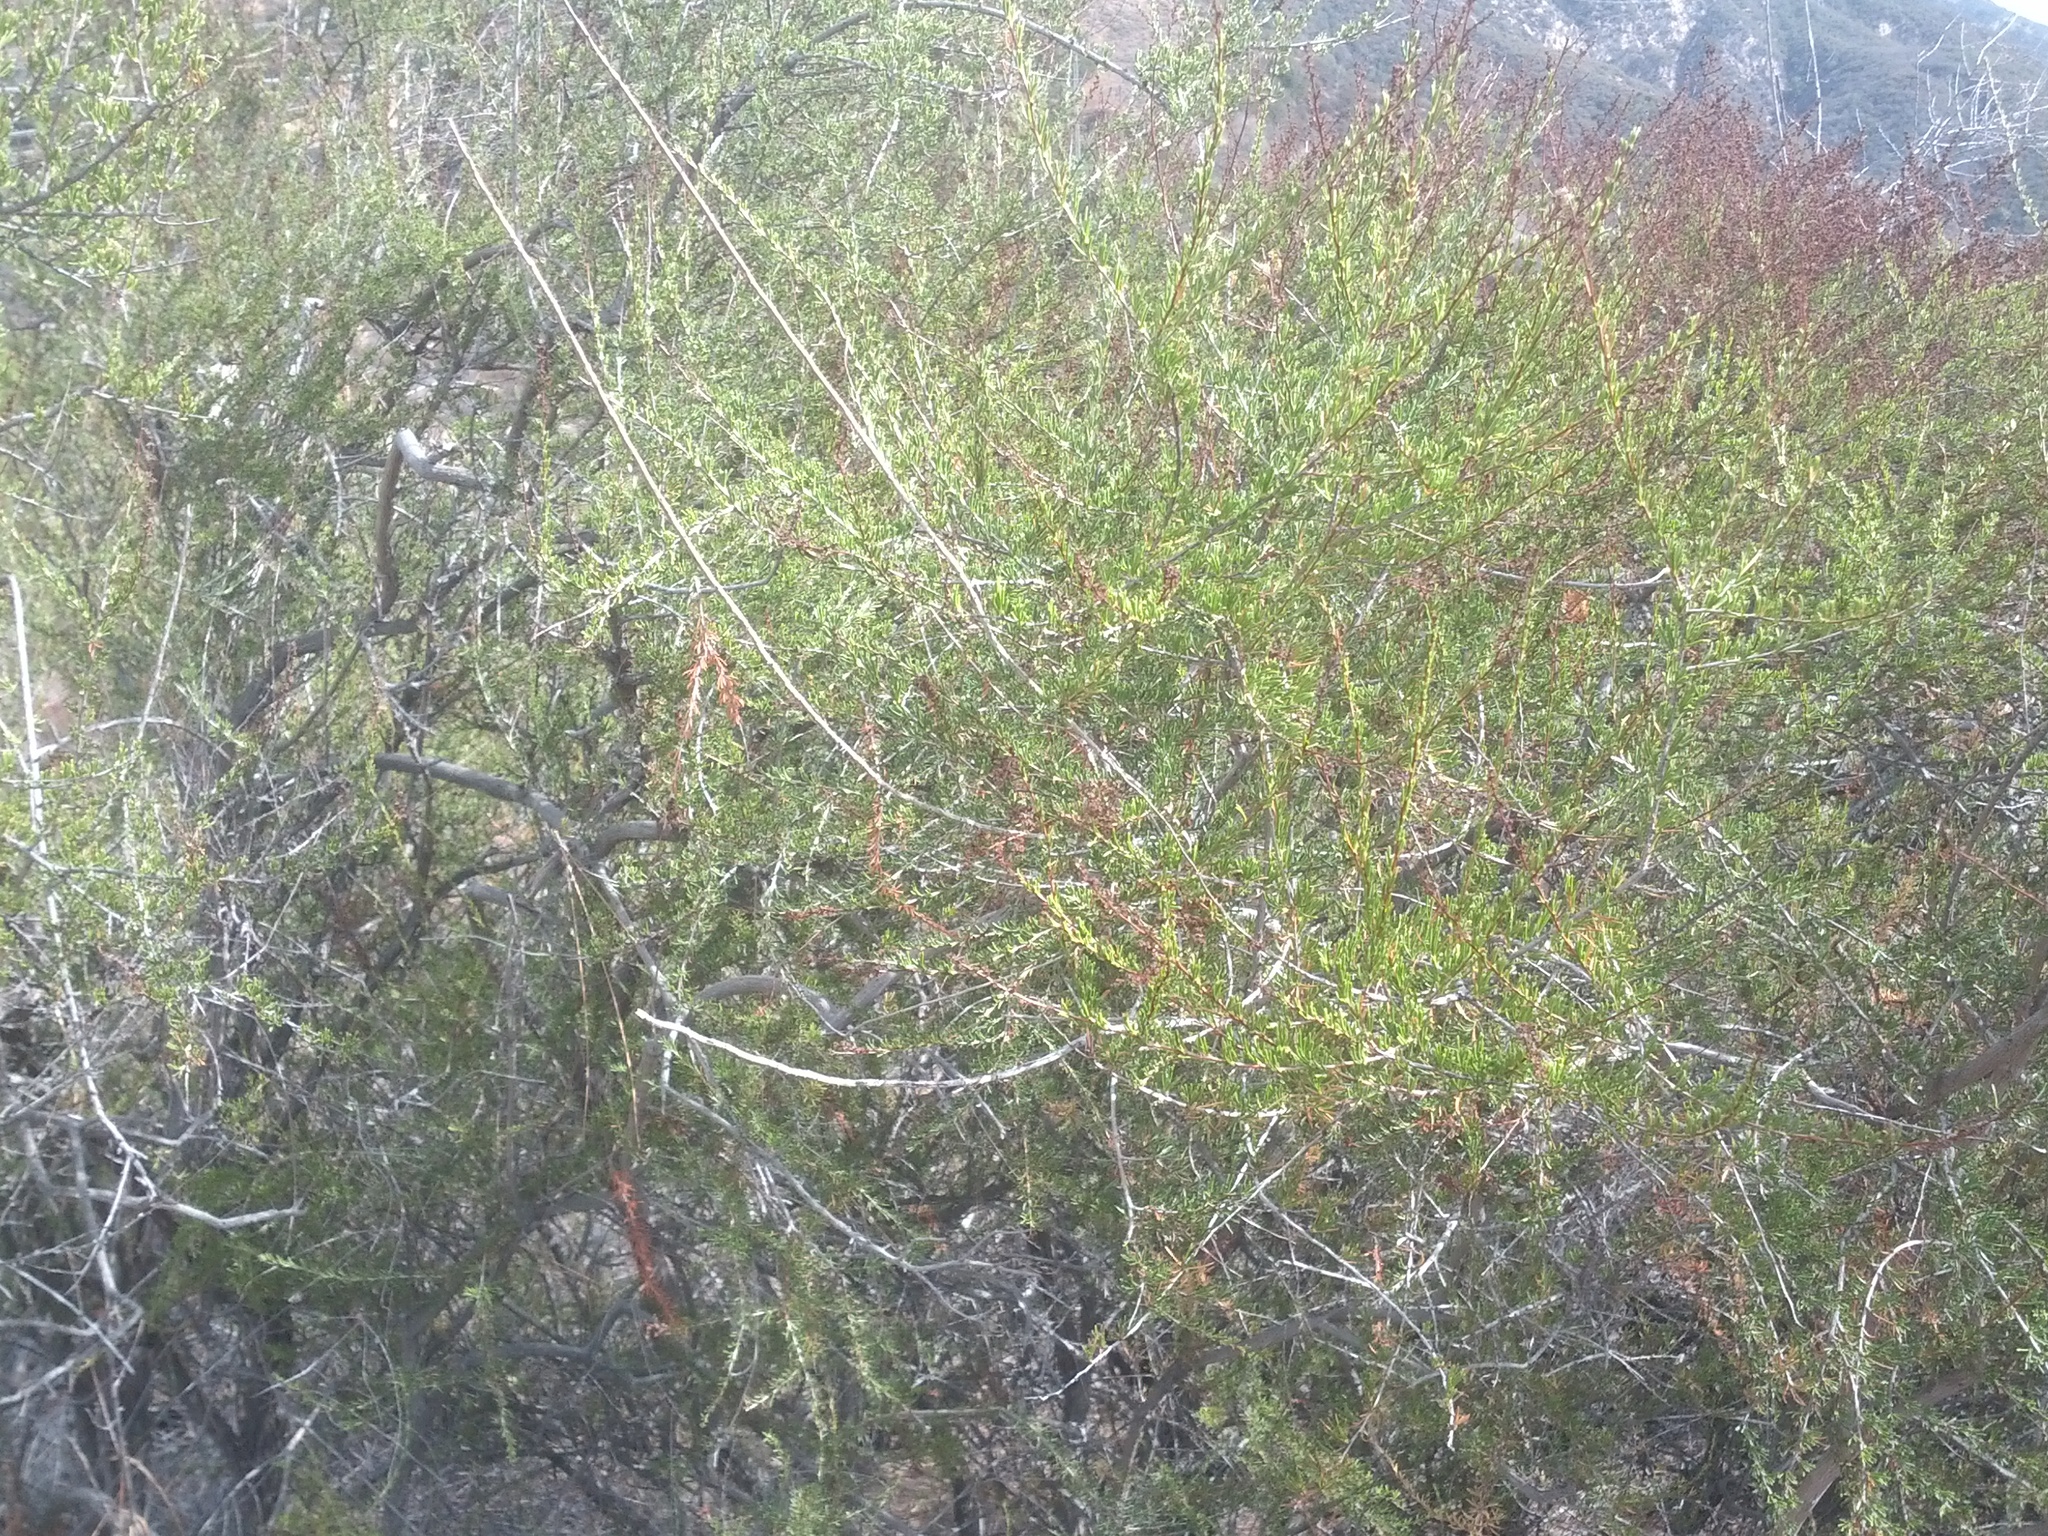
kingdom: Plantae
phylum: Tracheophyta
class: Magnoliopsida
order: Rosales
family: Rosaceae
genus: Adenostoma
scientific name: Adenostoma fasciculatum
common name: Chamise
